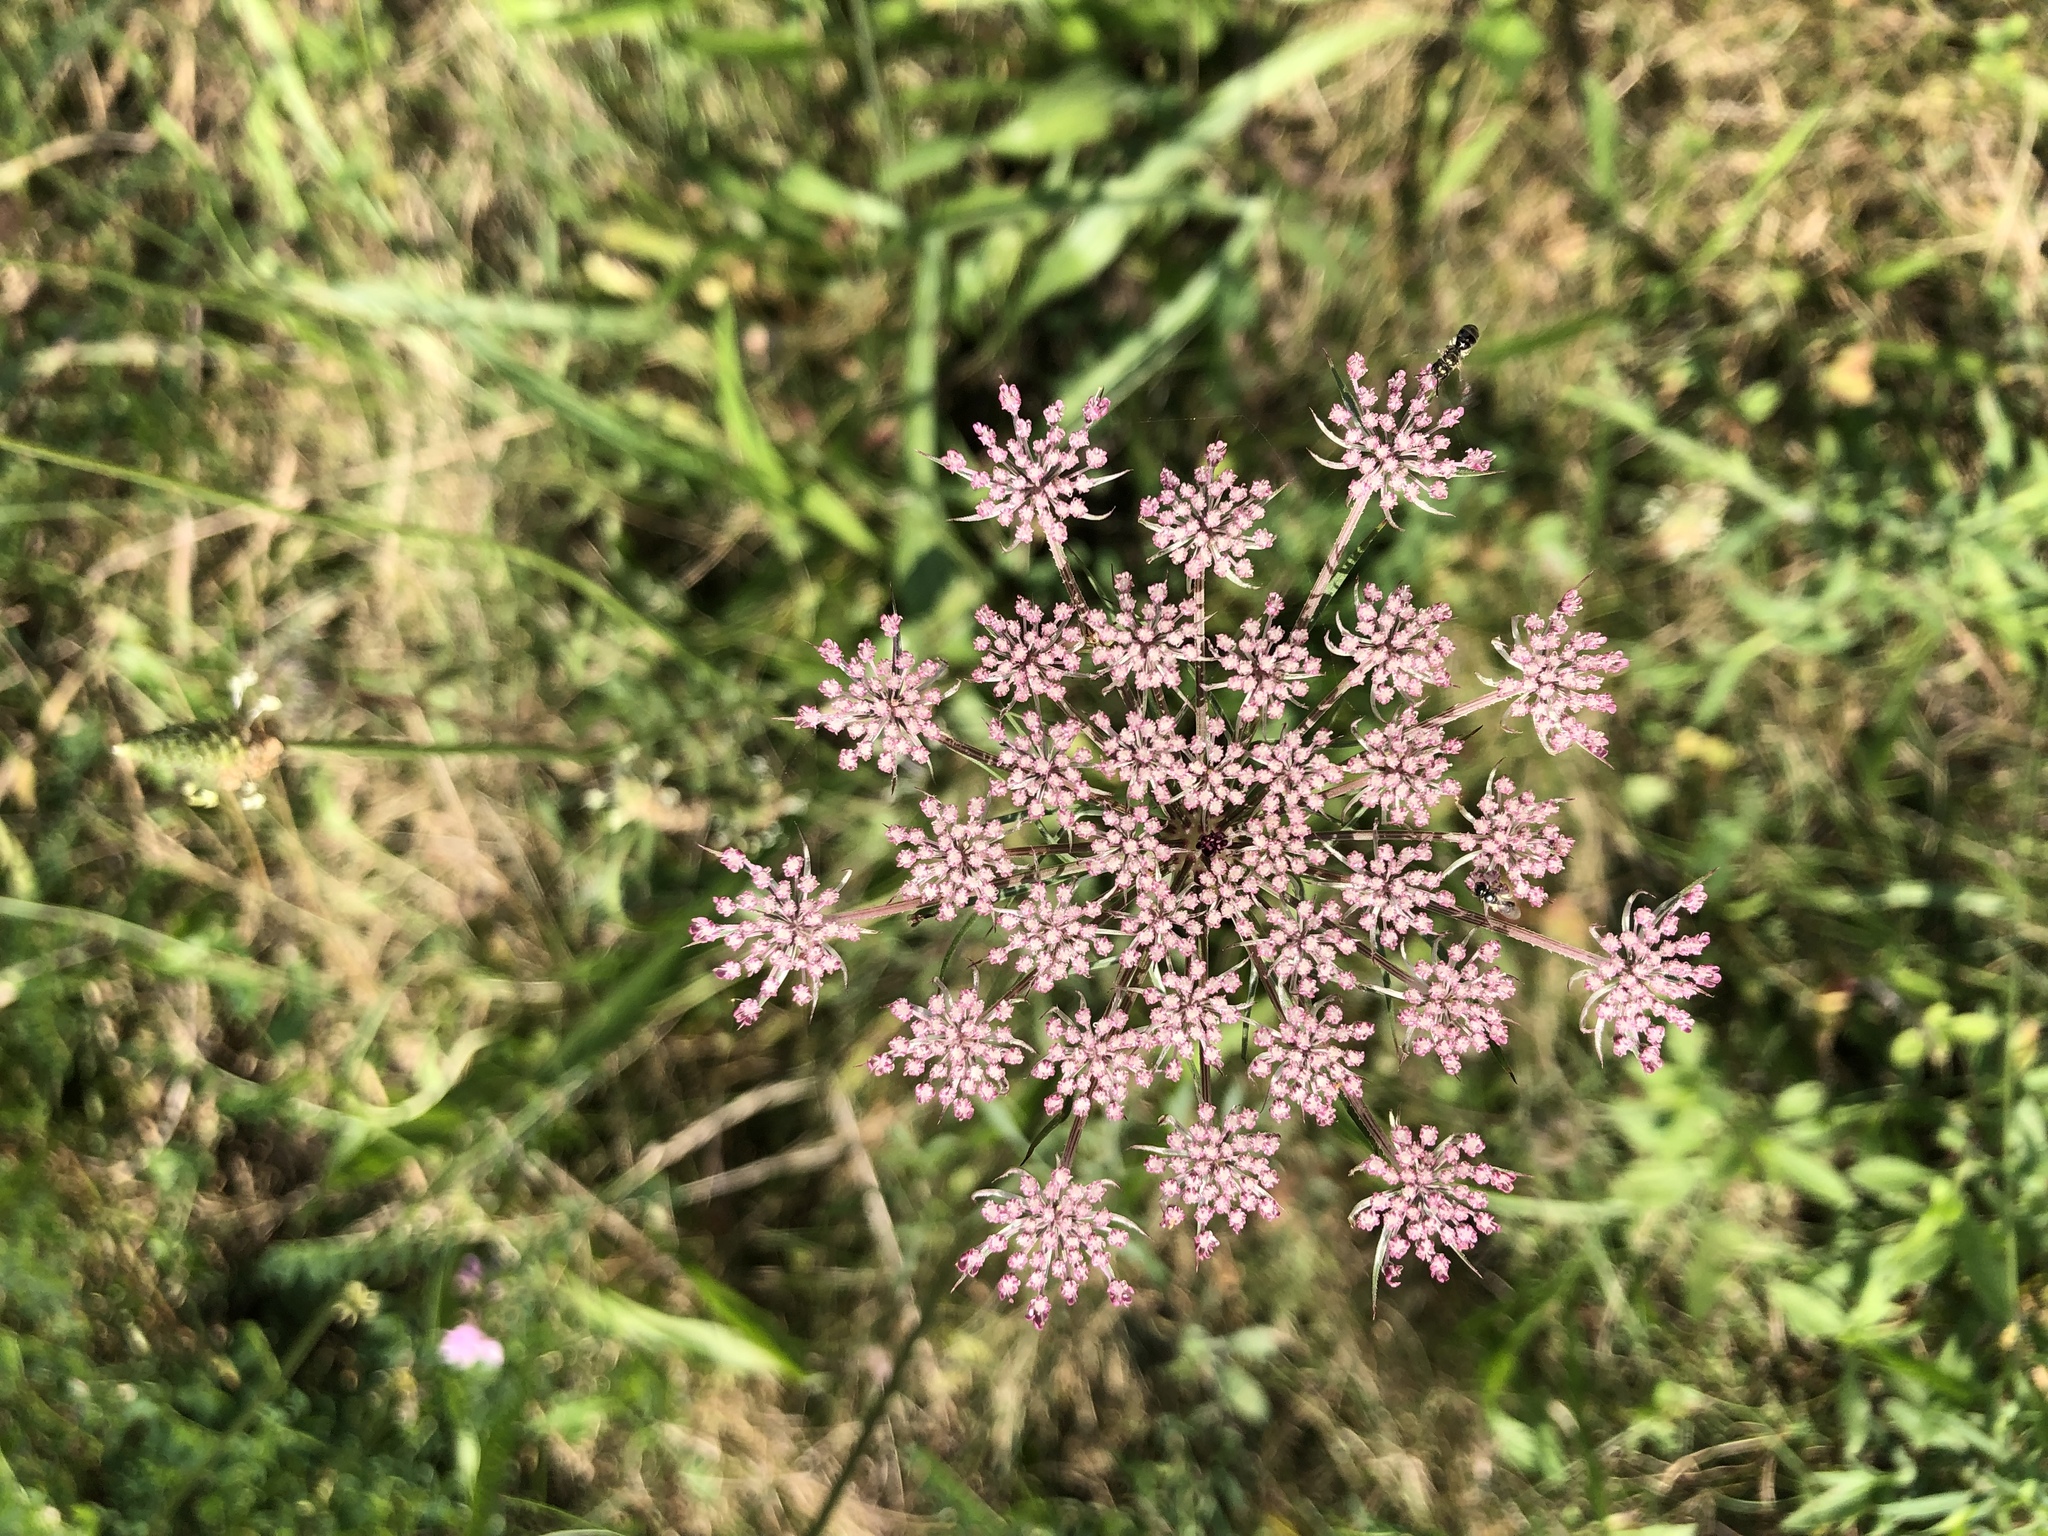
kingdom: Plantae
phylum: Tracheophyta
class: Magnoliopsida
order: Apiales
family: Apiaceae
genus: Daucus
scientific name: Daucus carota
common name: Wild carrot
